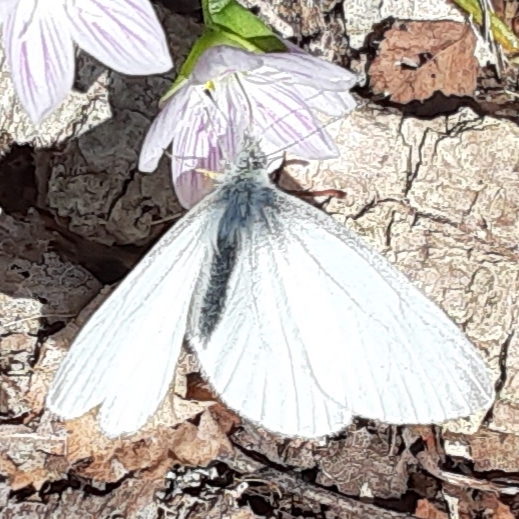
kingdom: Animalia
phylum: Arthropoda
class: Insecta
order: Lepidoptera
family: Pieridae
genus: Pieris
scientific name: Pieris virginiensis
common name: West virginia white
